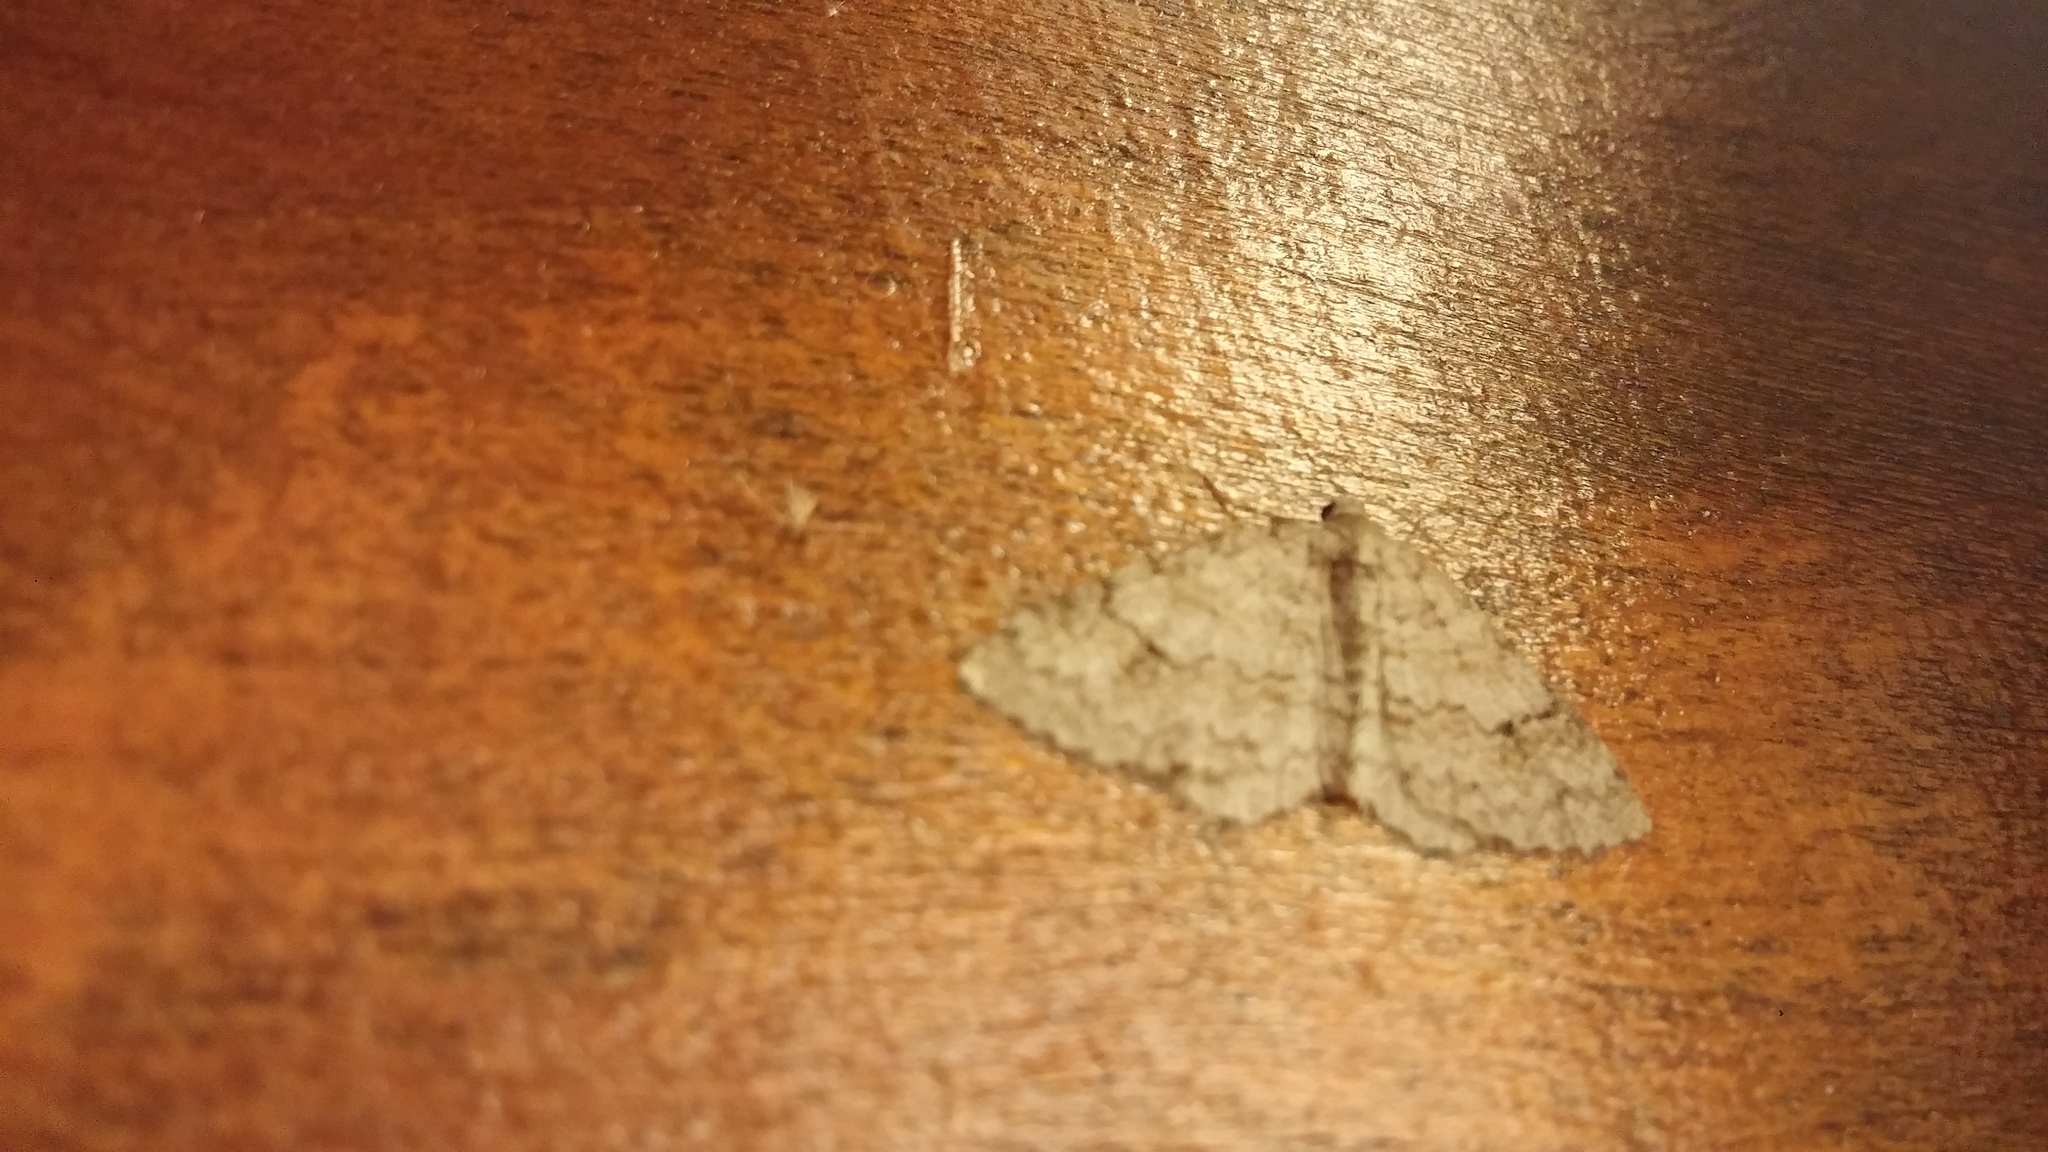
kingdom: Animalia
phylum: Arthropoda
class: Insecta
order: Lepidoptera
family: Geometridae
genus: Venusia
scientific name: Venusia comptaria
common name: Brown-shaded carpet
